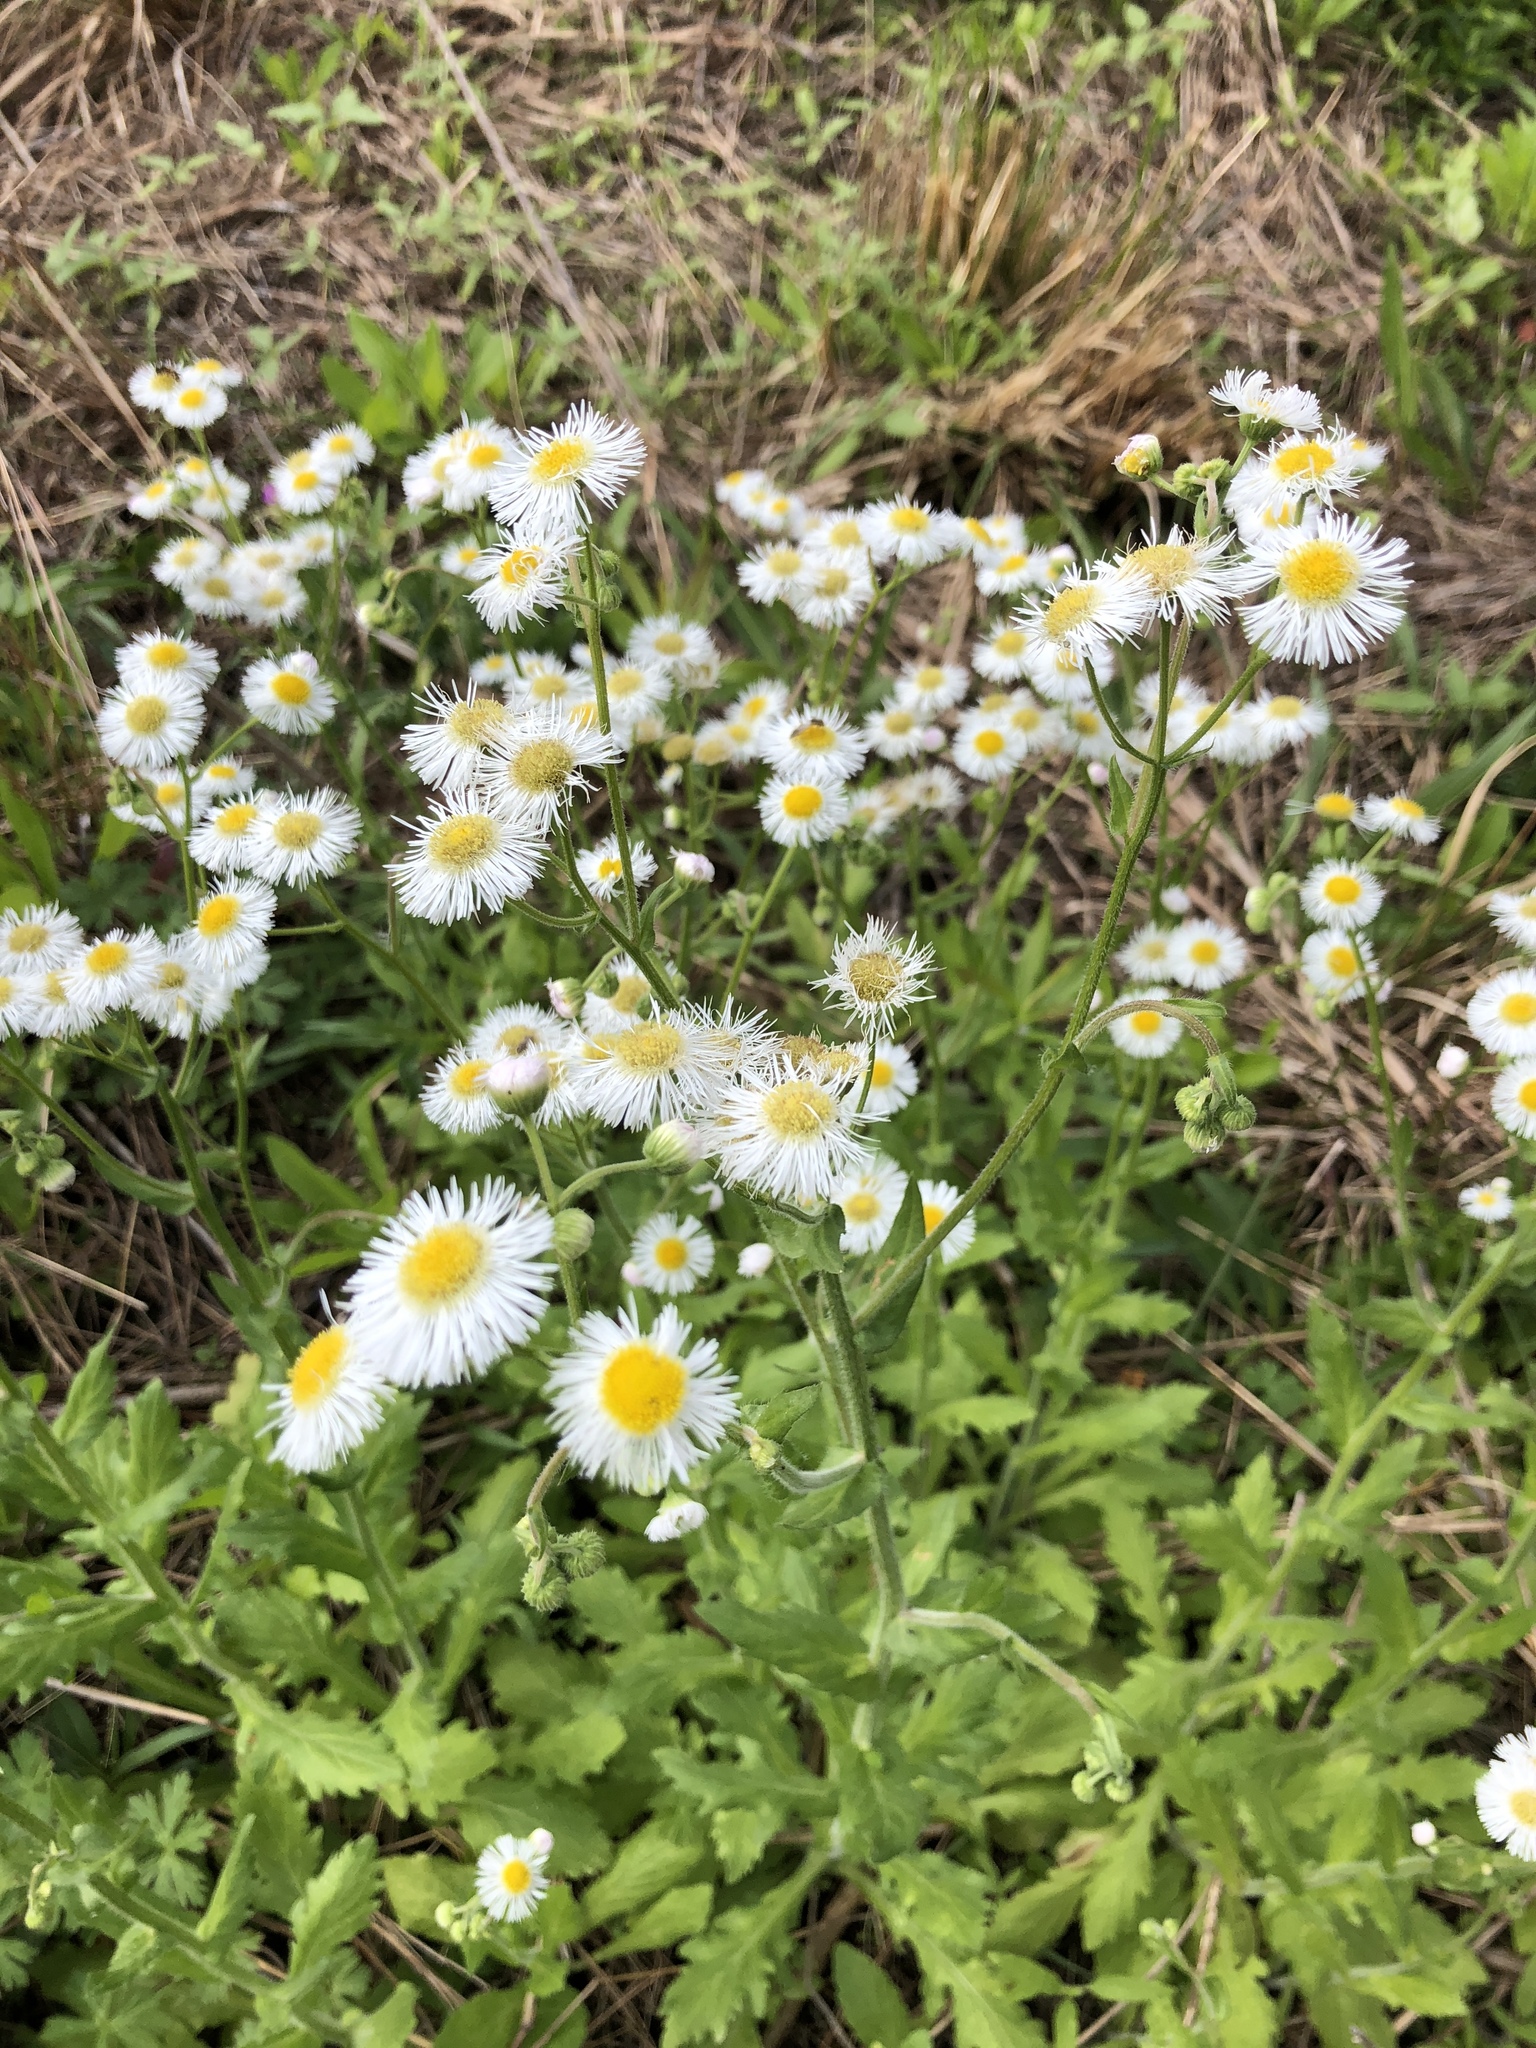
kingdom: Plantae
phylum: Tracheophyta
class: Magnoliopsida
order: Asterales
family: Asteraceae
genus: Erigeron
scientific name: Erigeron philadelphicus
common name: Robin's-plantain
